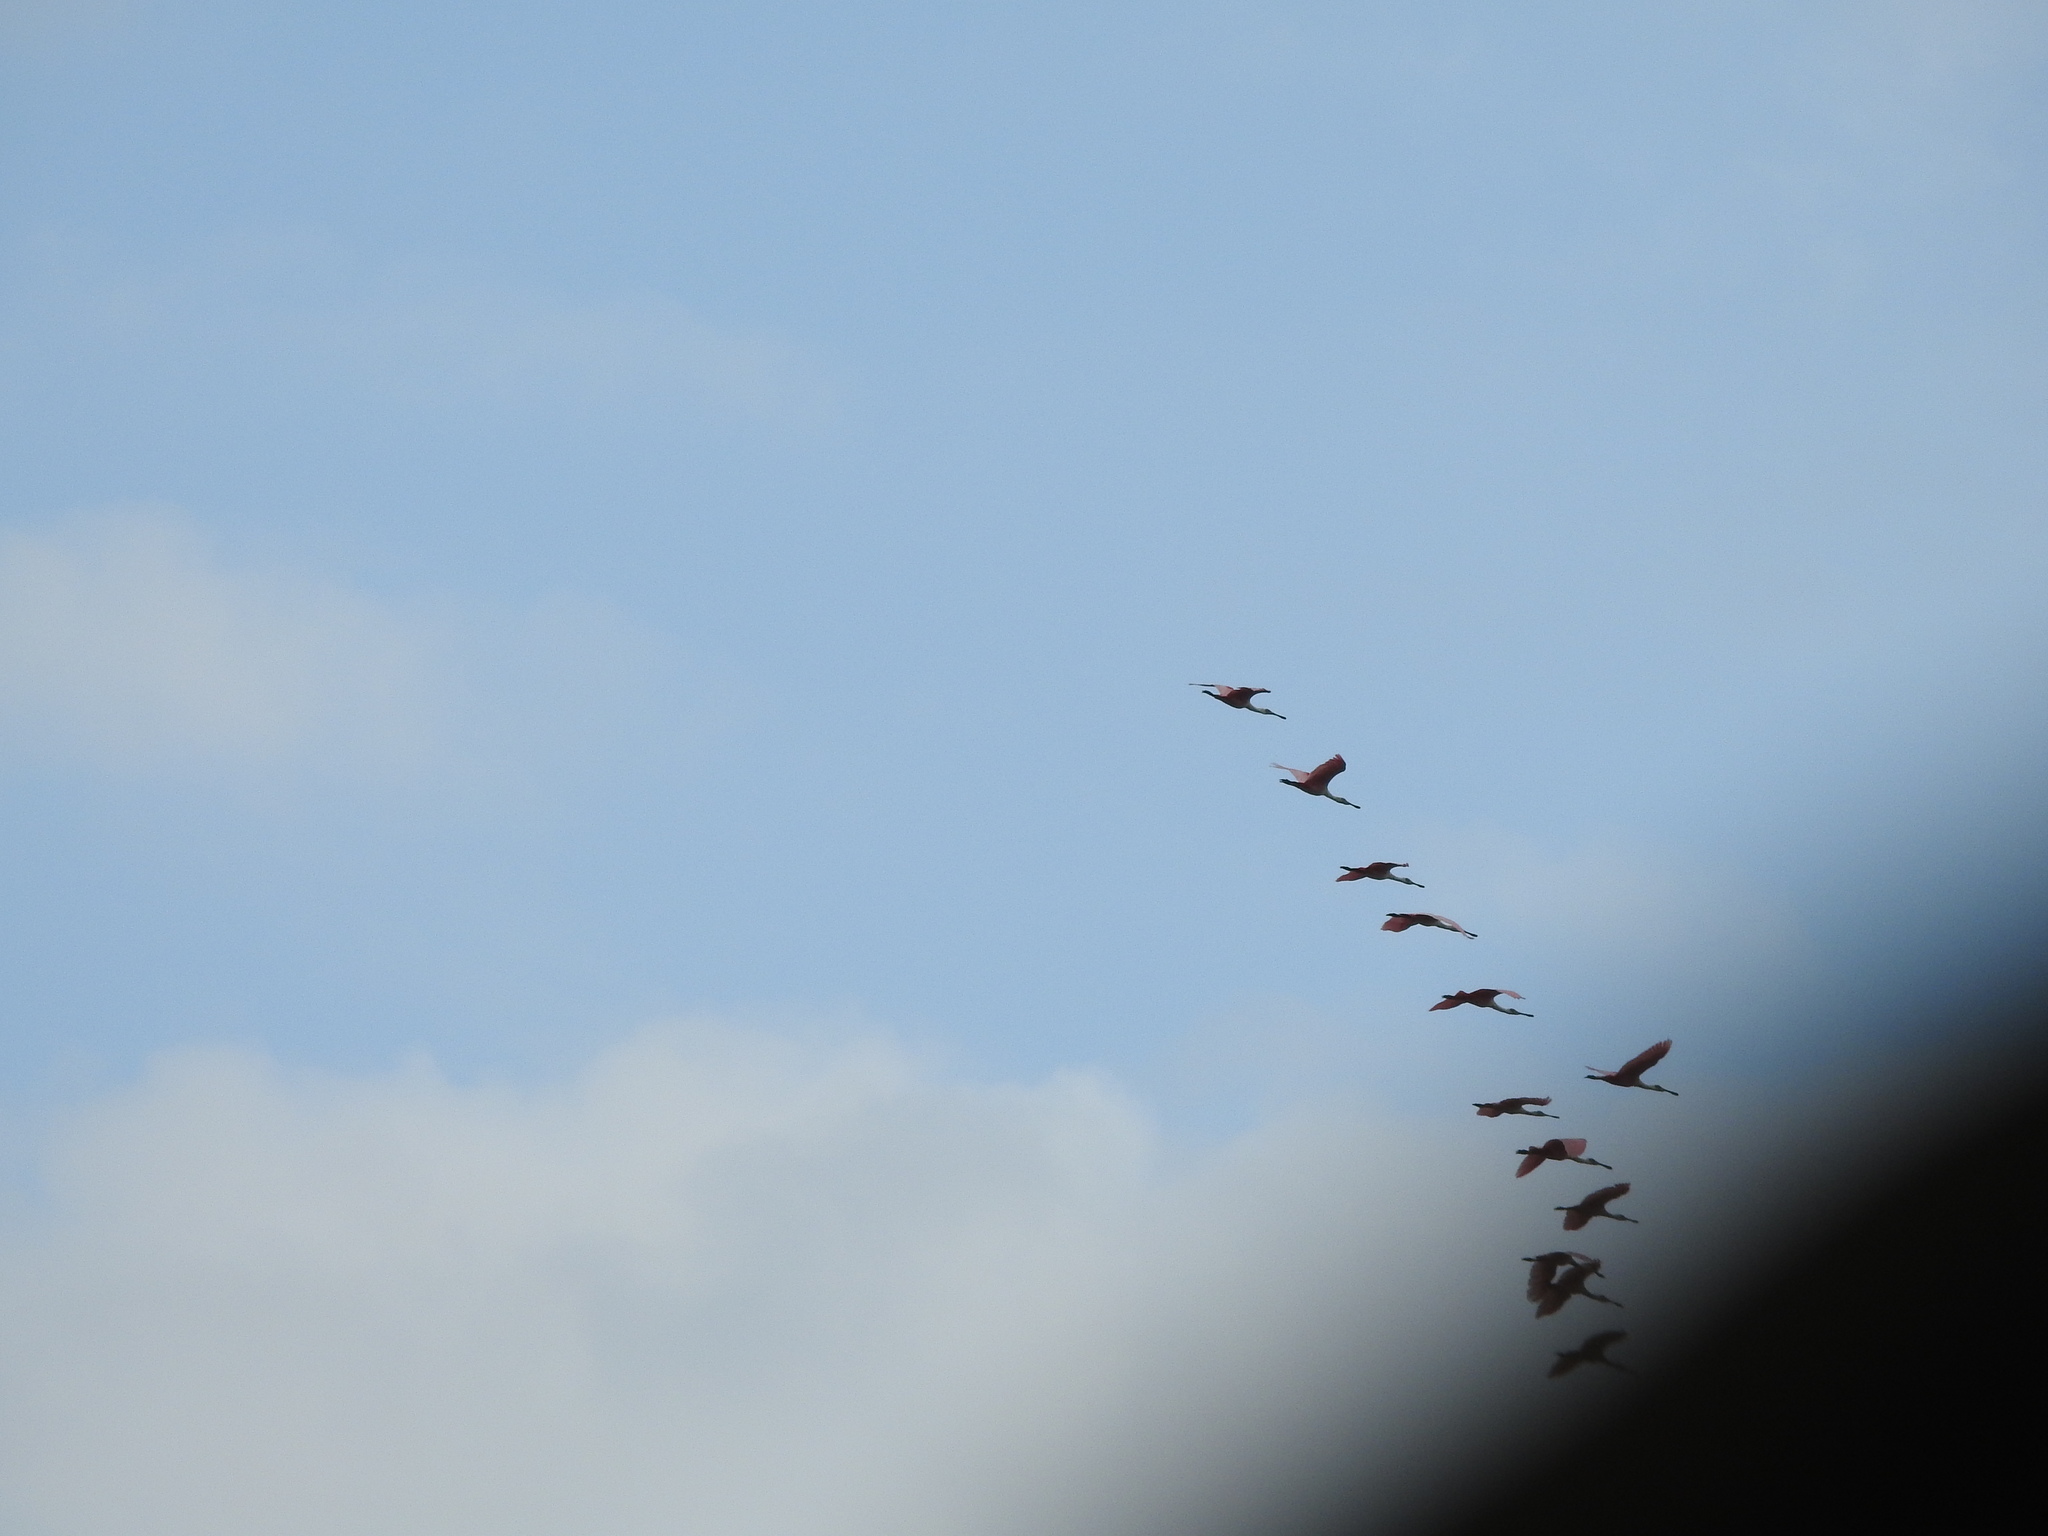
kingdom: Animalia
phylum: Chordata
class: Aves
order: Pelecaniformes
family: Threskiornithidae
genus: Platalea
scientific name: Platalea ajaja
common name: Roseate spoonbill
